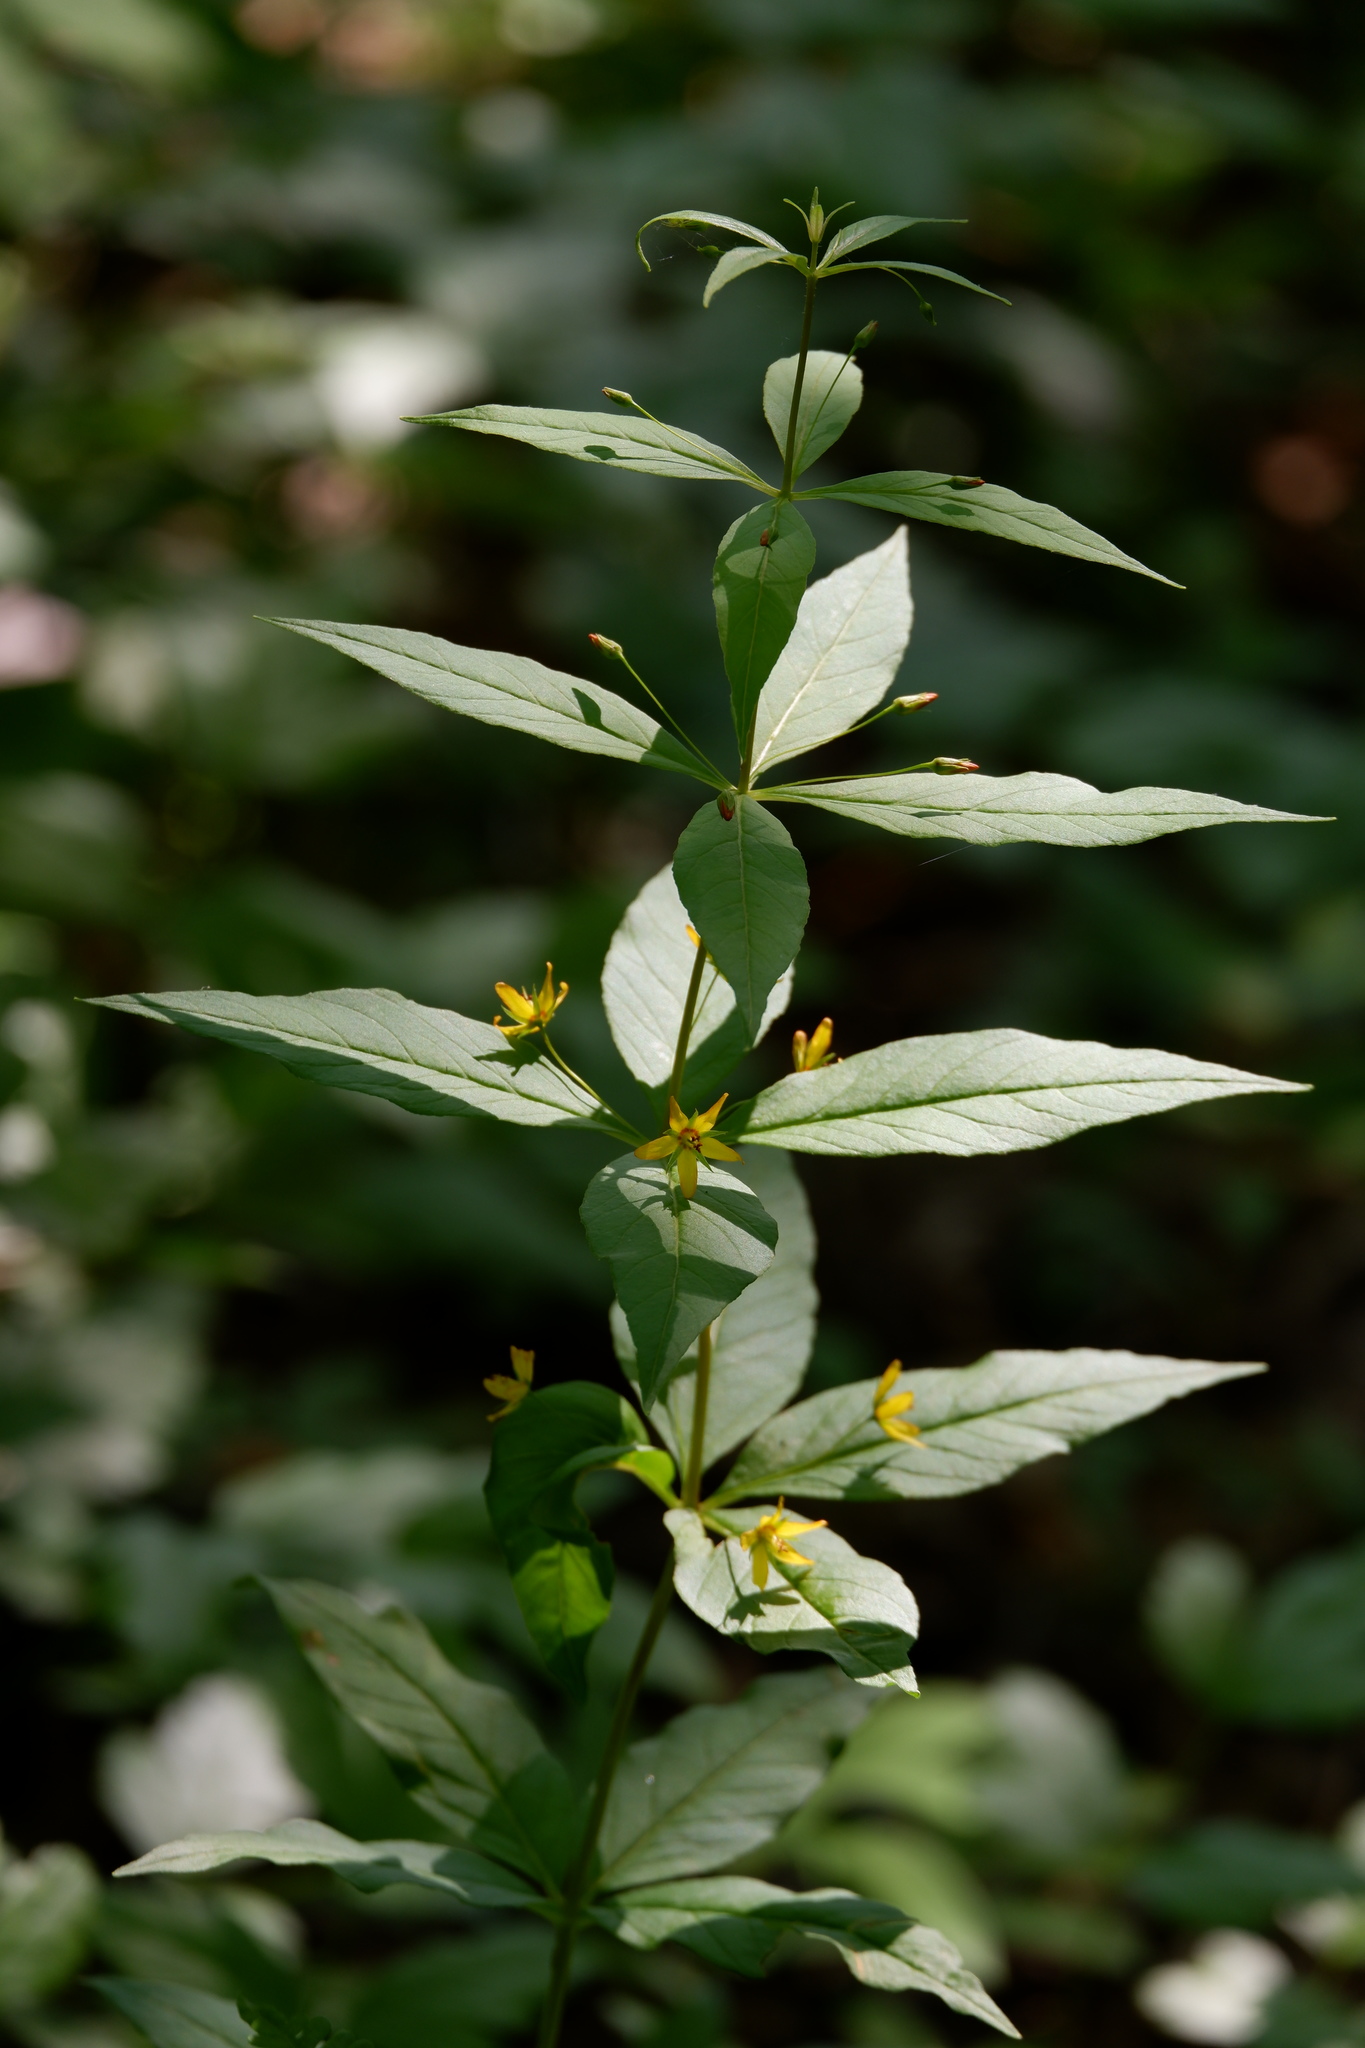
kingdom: Plantae
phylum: Tracheophyta
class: Magnoliopsida
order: Ericales
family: Primulaceae
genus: Lysimachia
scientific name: Lysimachia quadrifolia
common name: Whorled loosestrife
